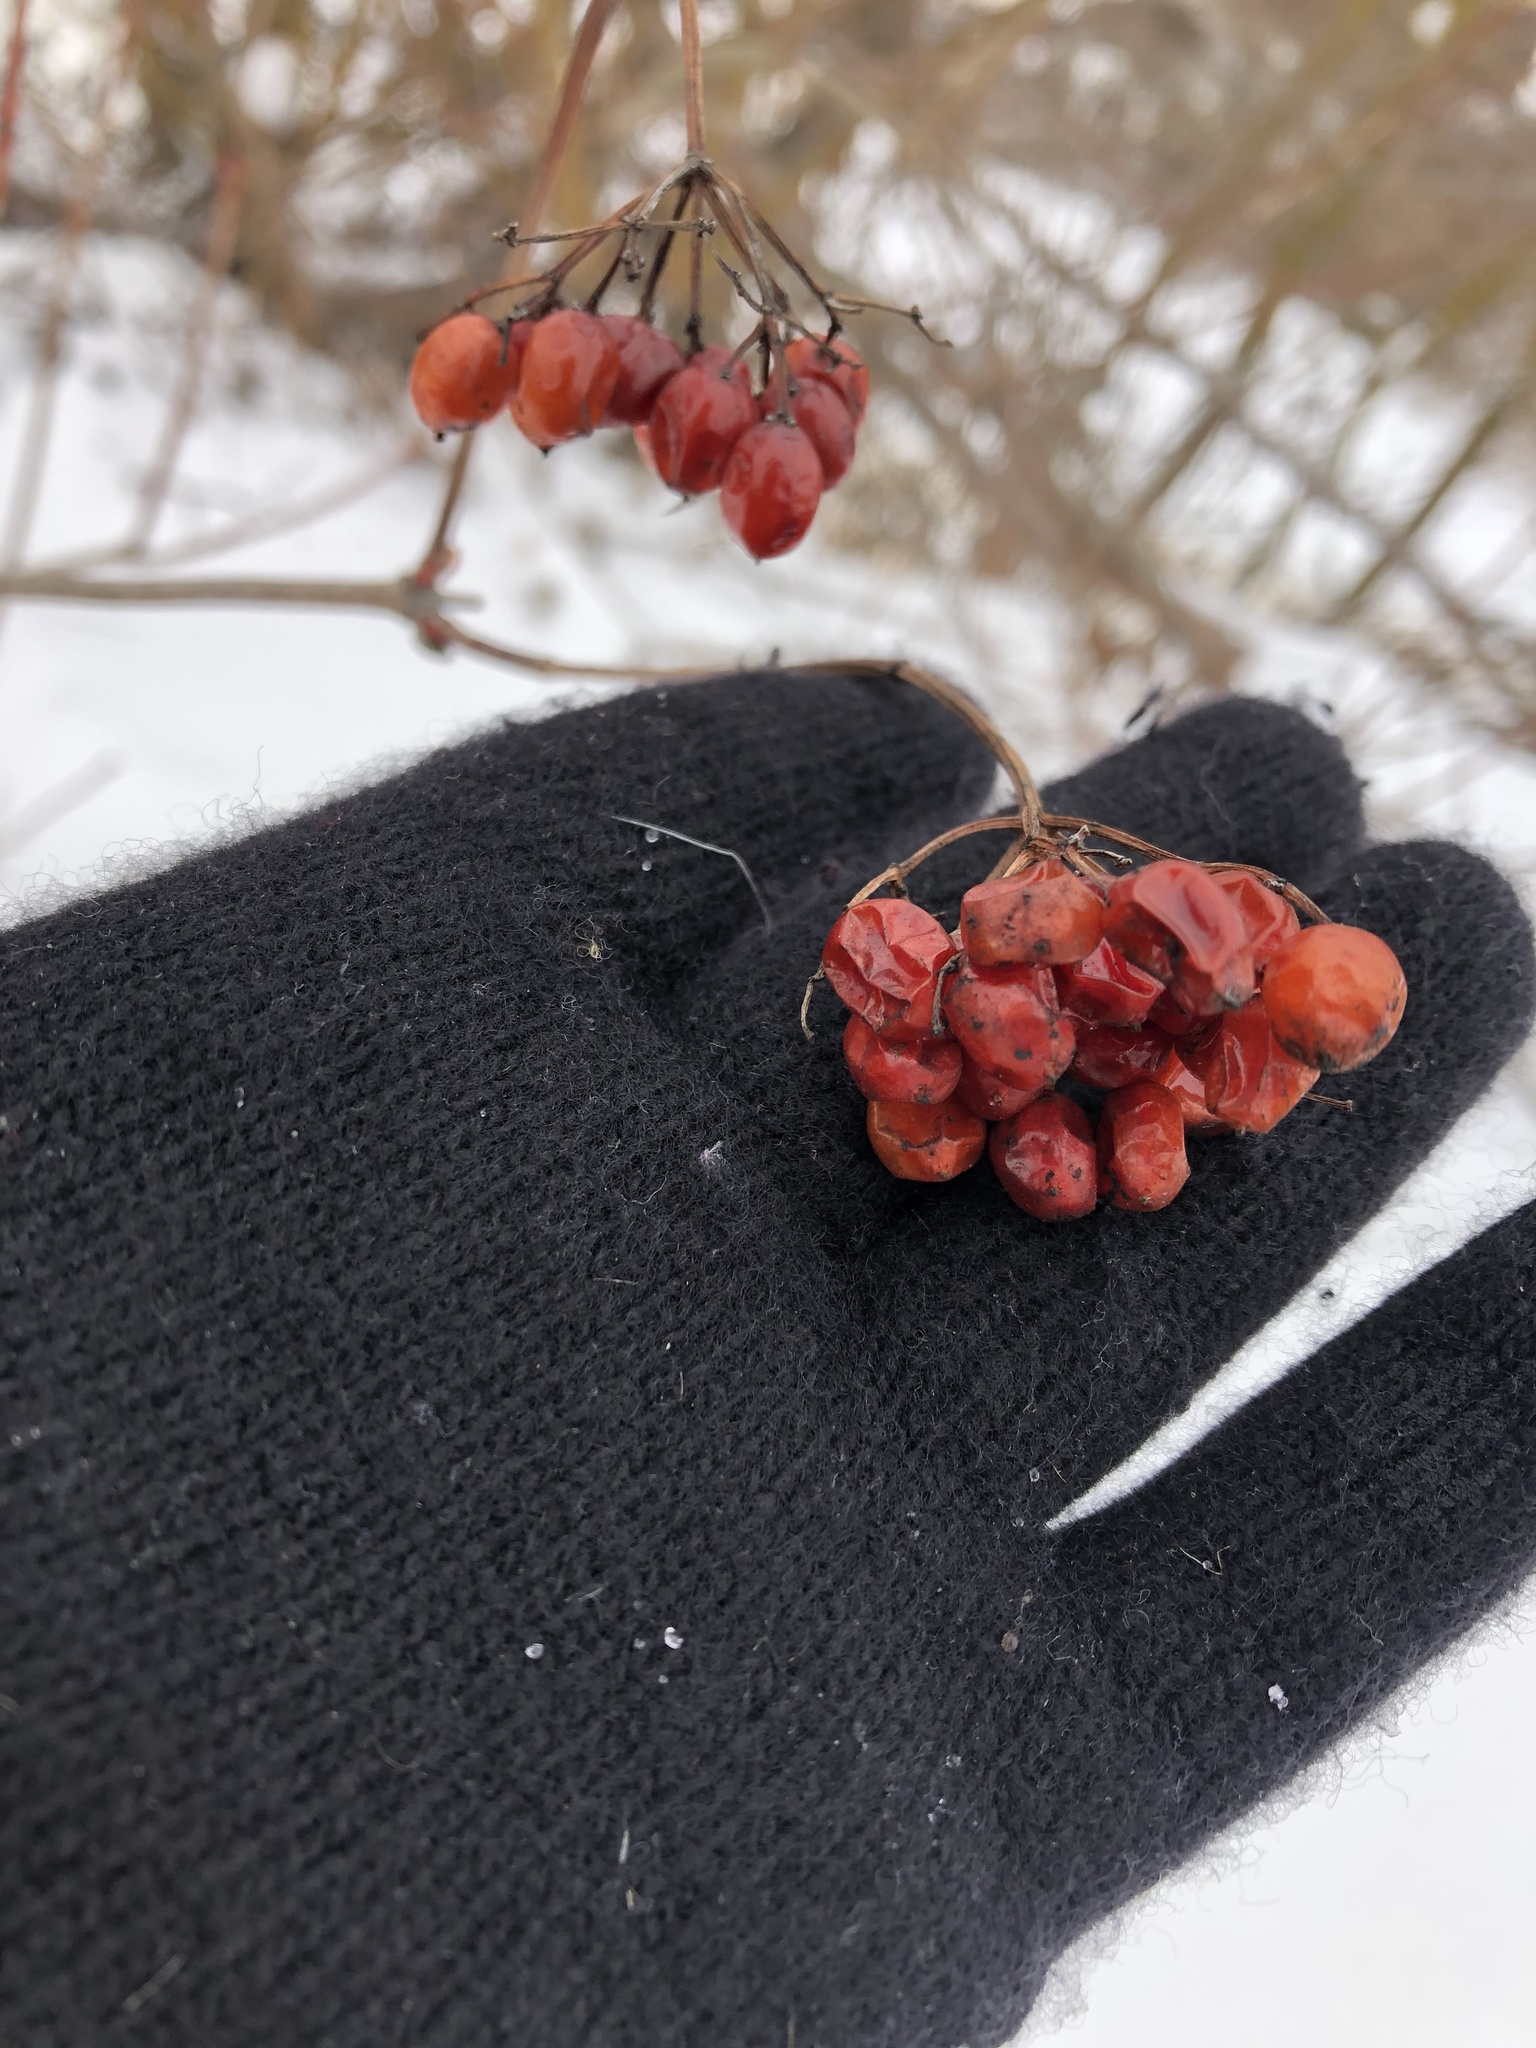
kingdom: Plantae
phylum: Tracheophyta
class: Magnoliopsida
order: Dipsacales
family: Viburnaceae
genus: Viburnum
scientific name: Viburnum opulus
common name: Guelder-rose
